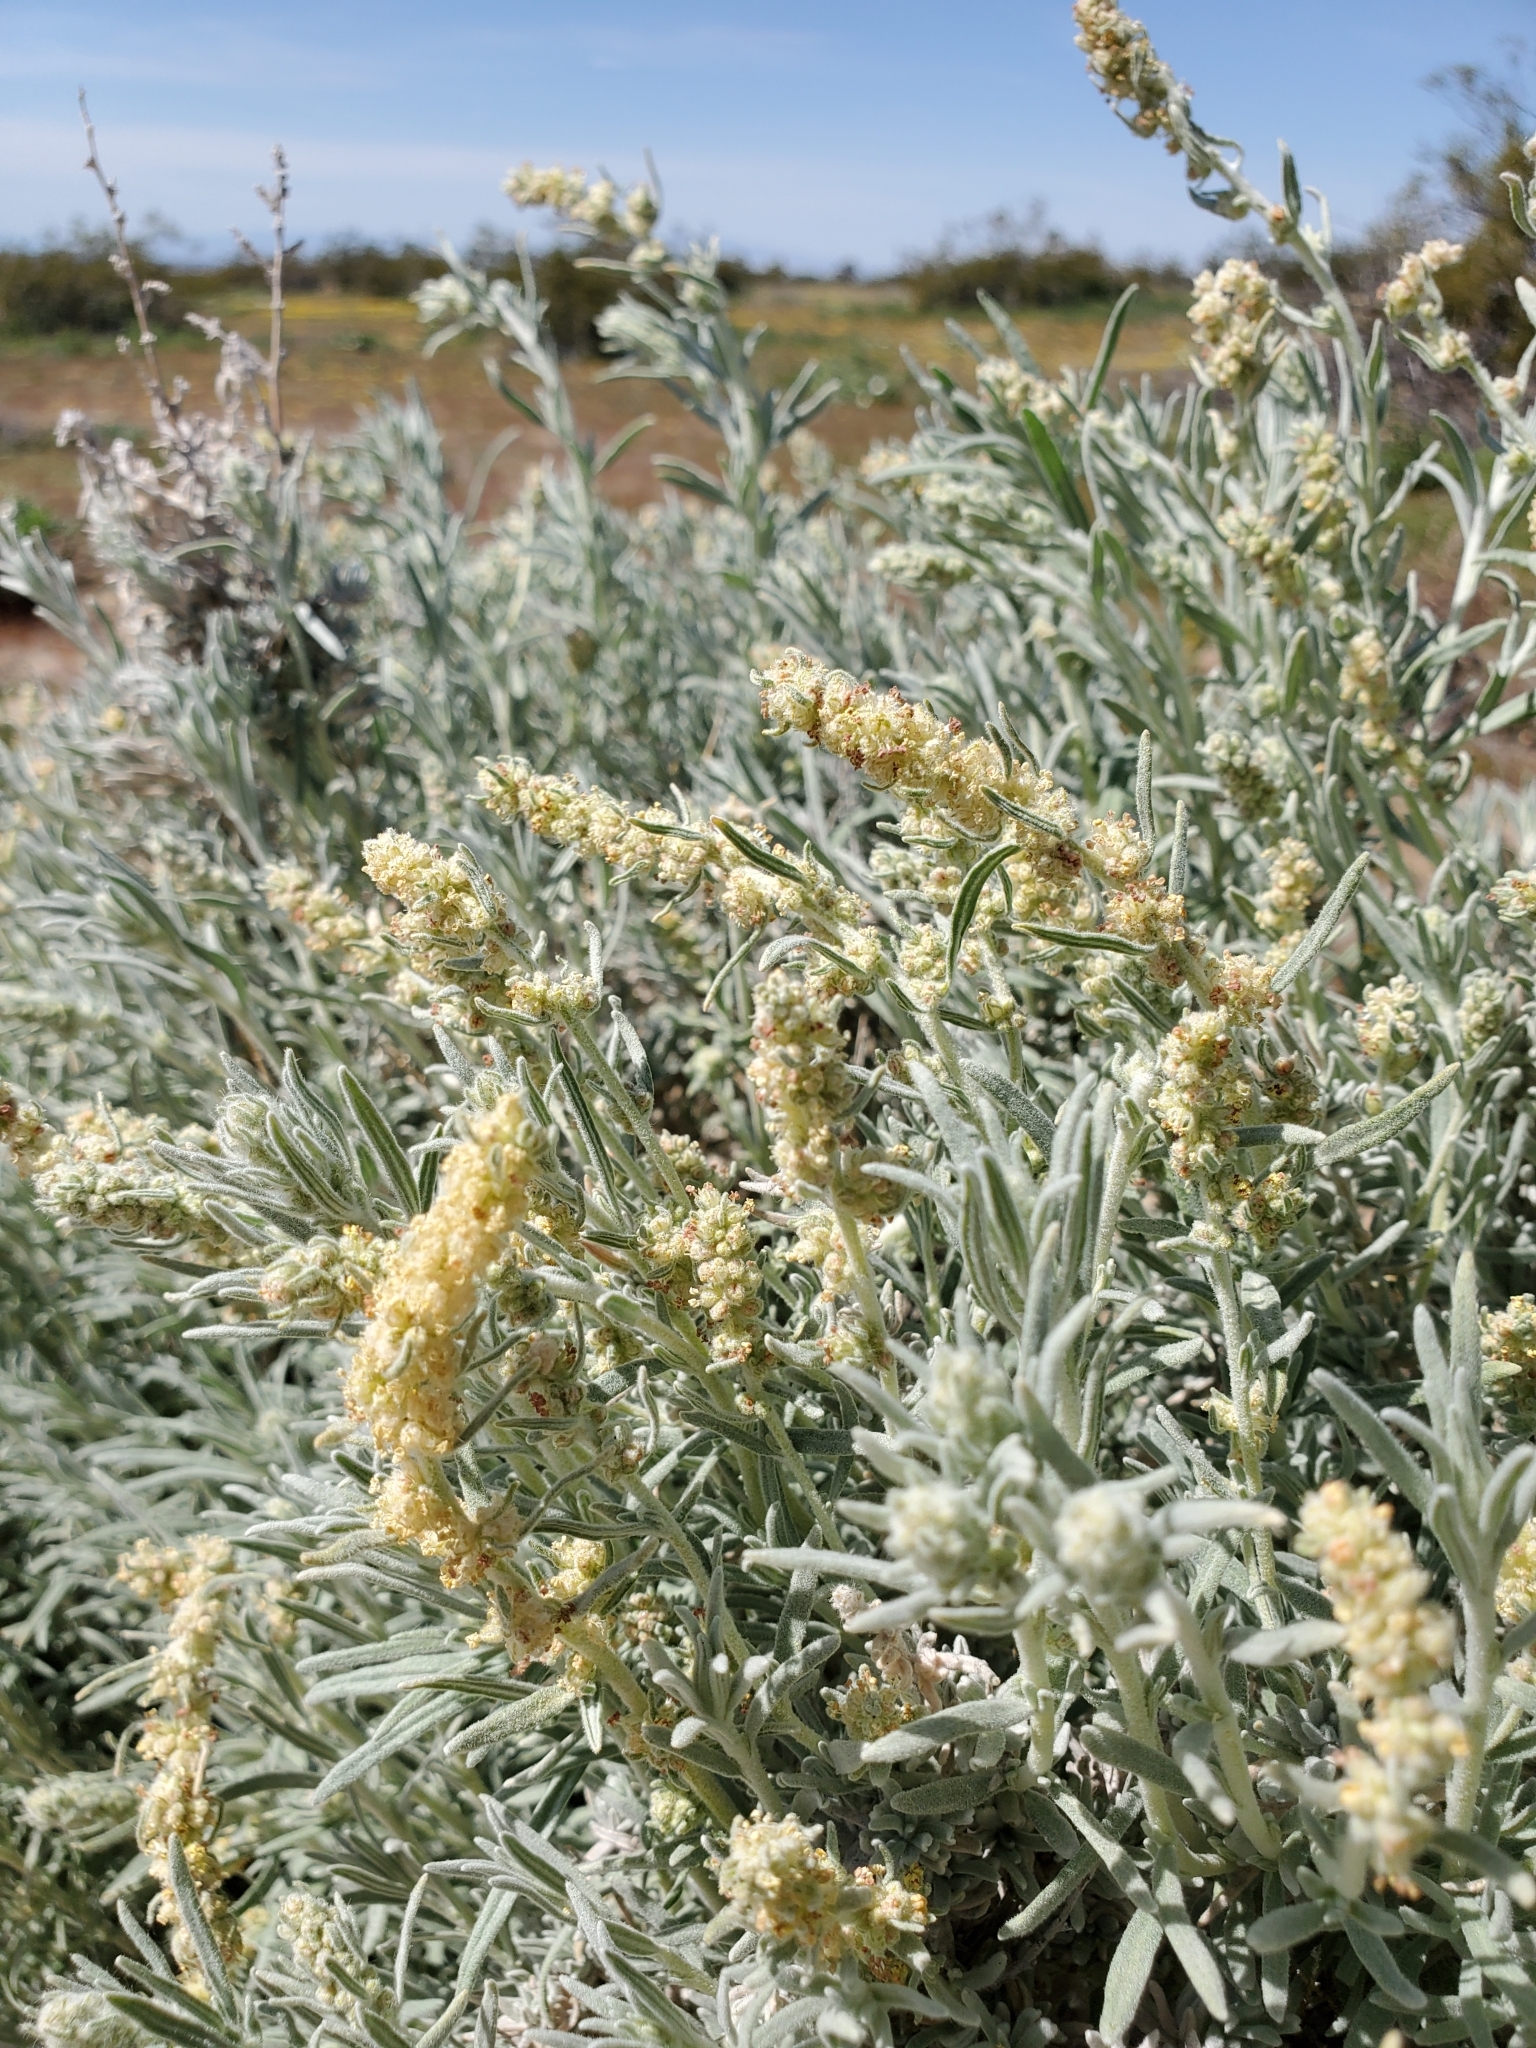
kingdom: Plantae
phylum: Tracheophyta
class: Magnoliopsida
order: Caryophyllales
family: Amaranthaceae
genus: Krascheninnikovia
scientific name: Krascheninnikovia lanata
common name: Winterfat
